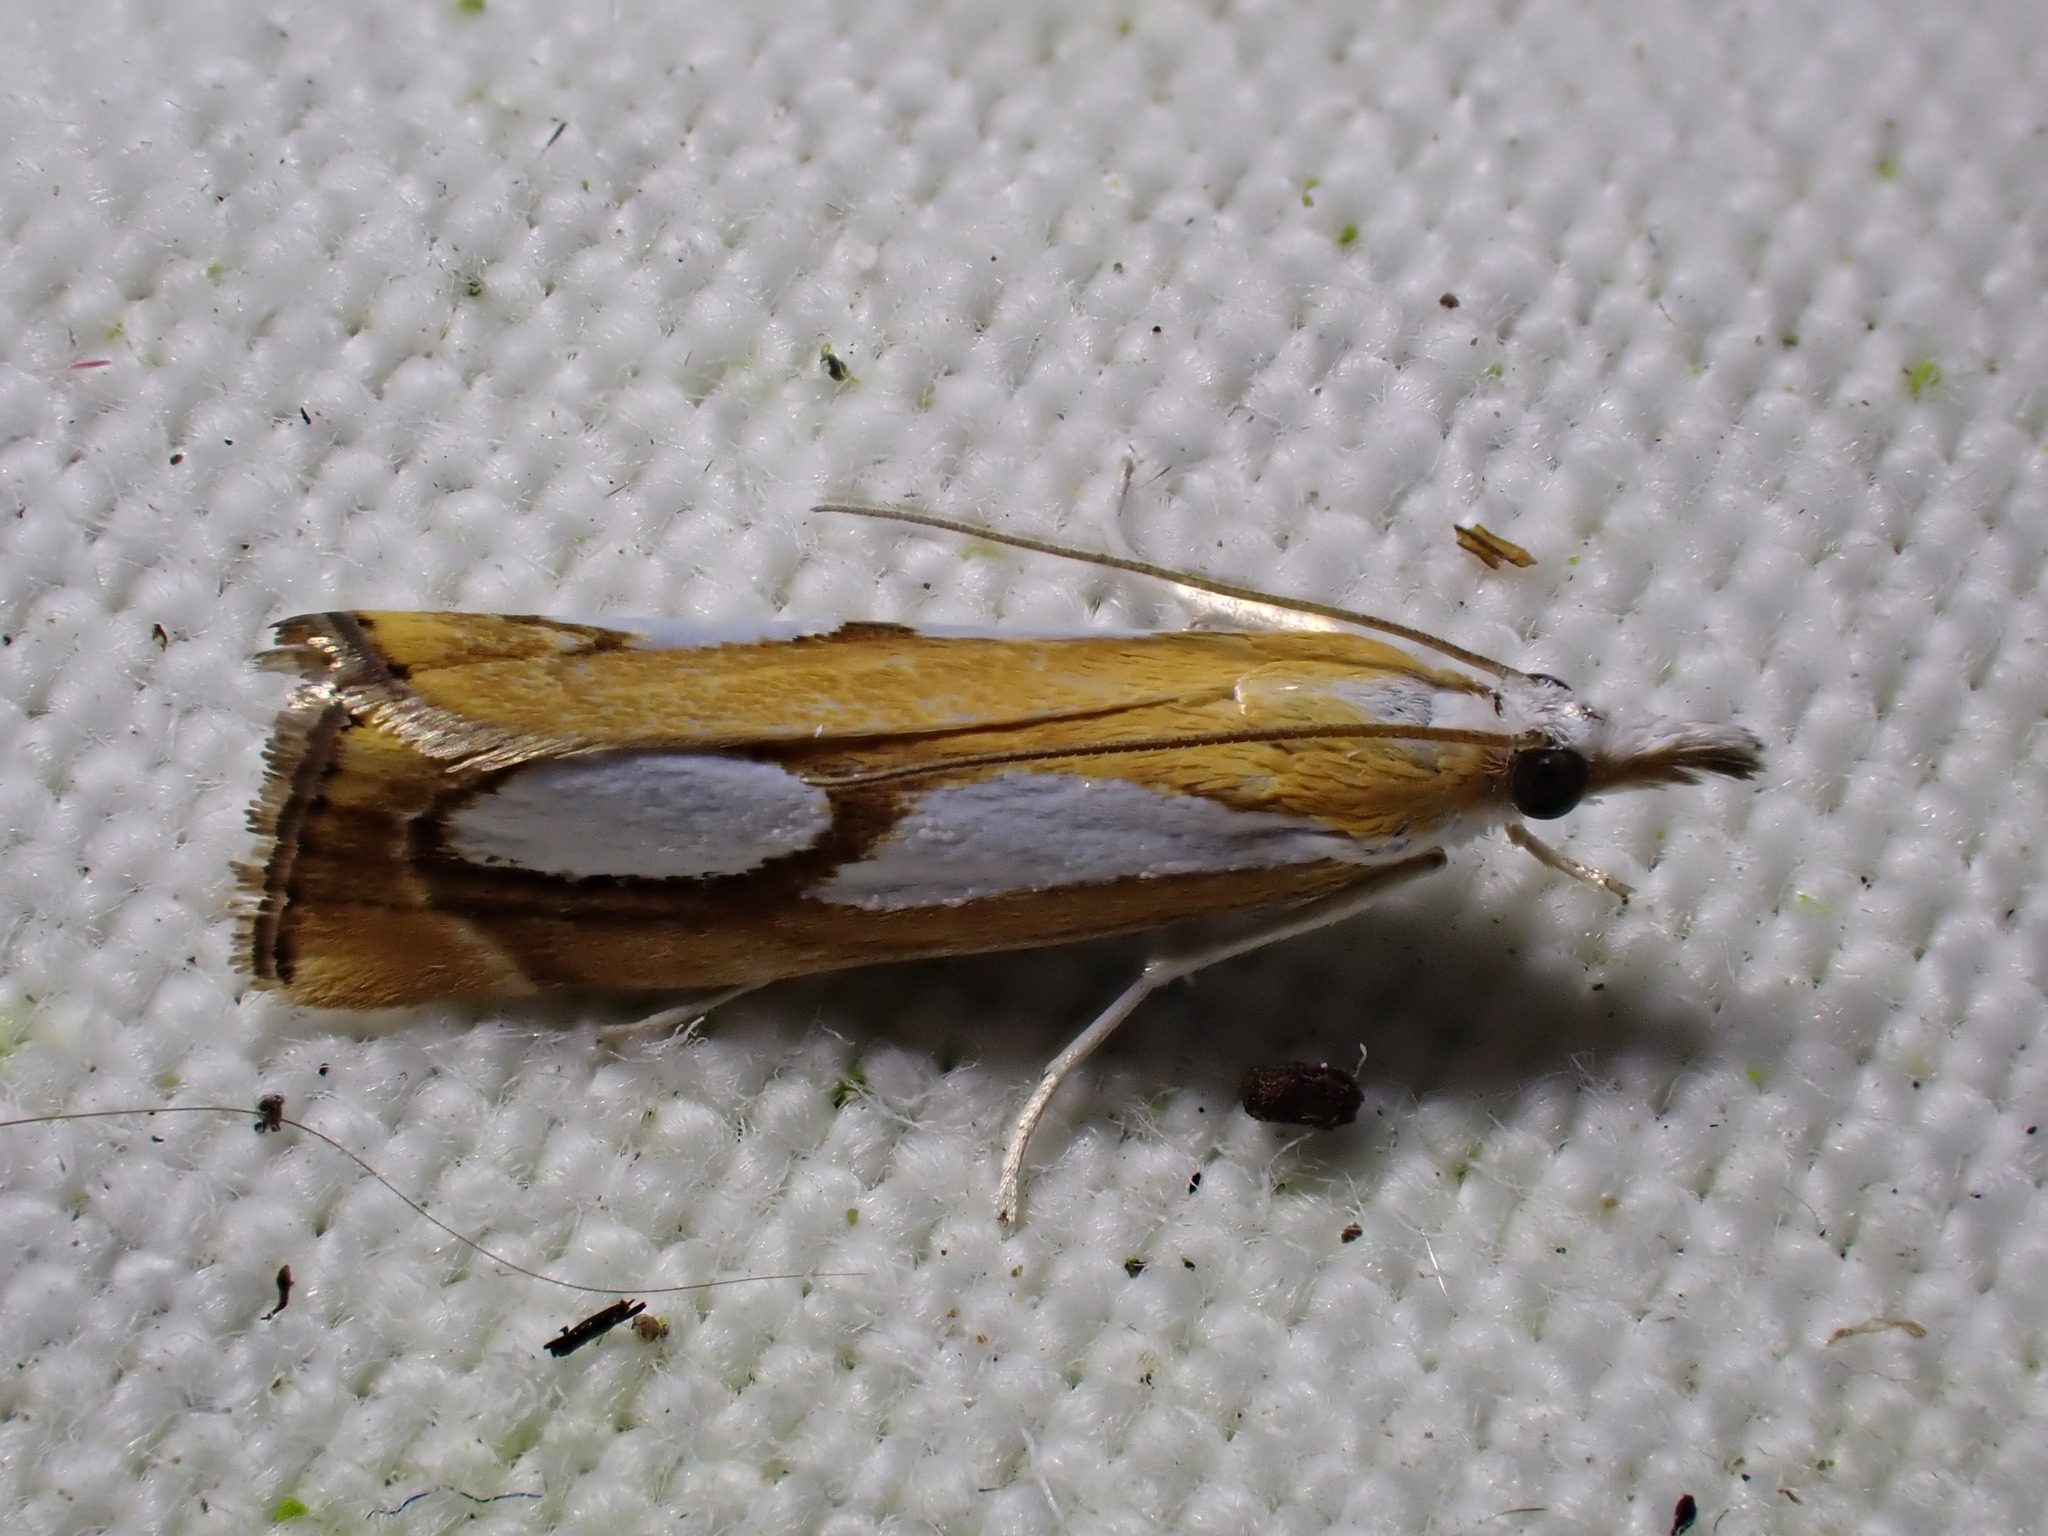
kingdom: Animalia
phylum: Arthropoda
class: Insecta
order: Lepidoptera
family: Crambidae
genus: Catoptria
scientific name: Catoptria pinella
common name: Pearl grass-veneer
